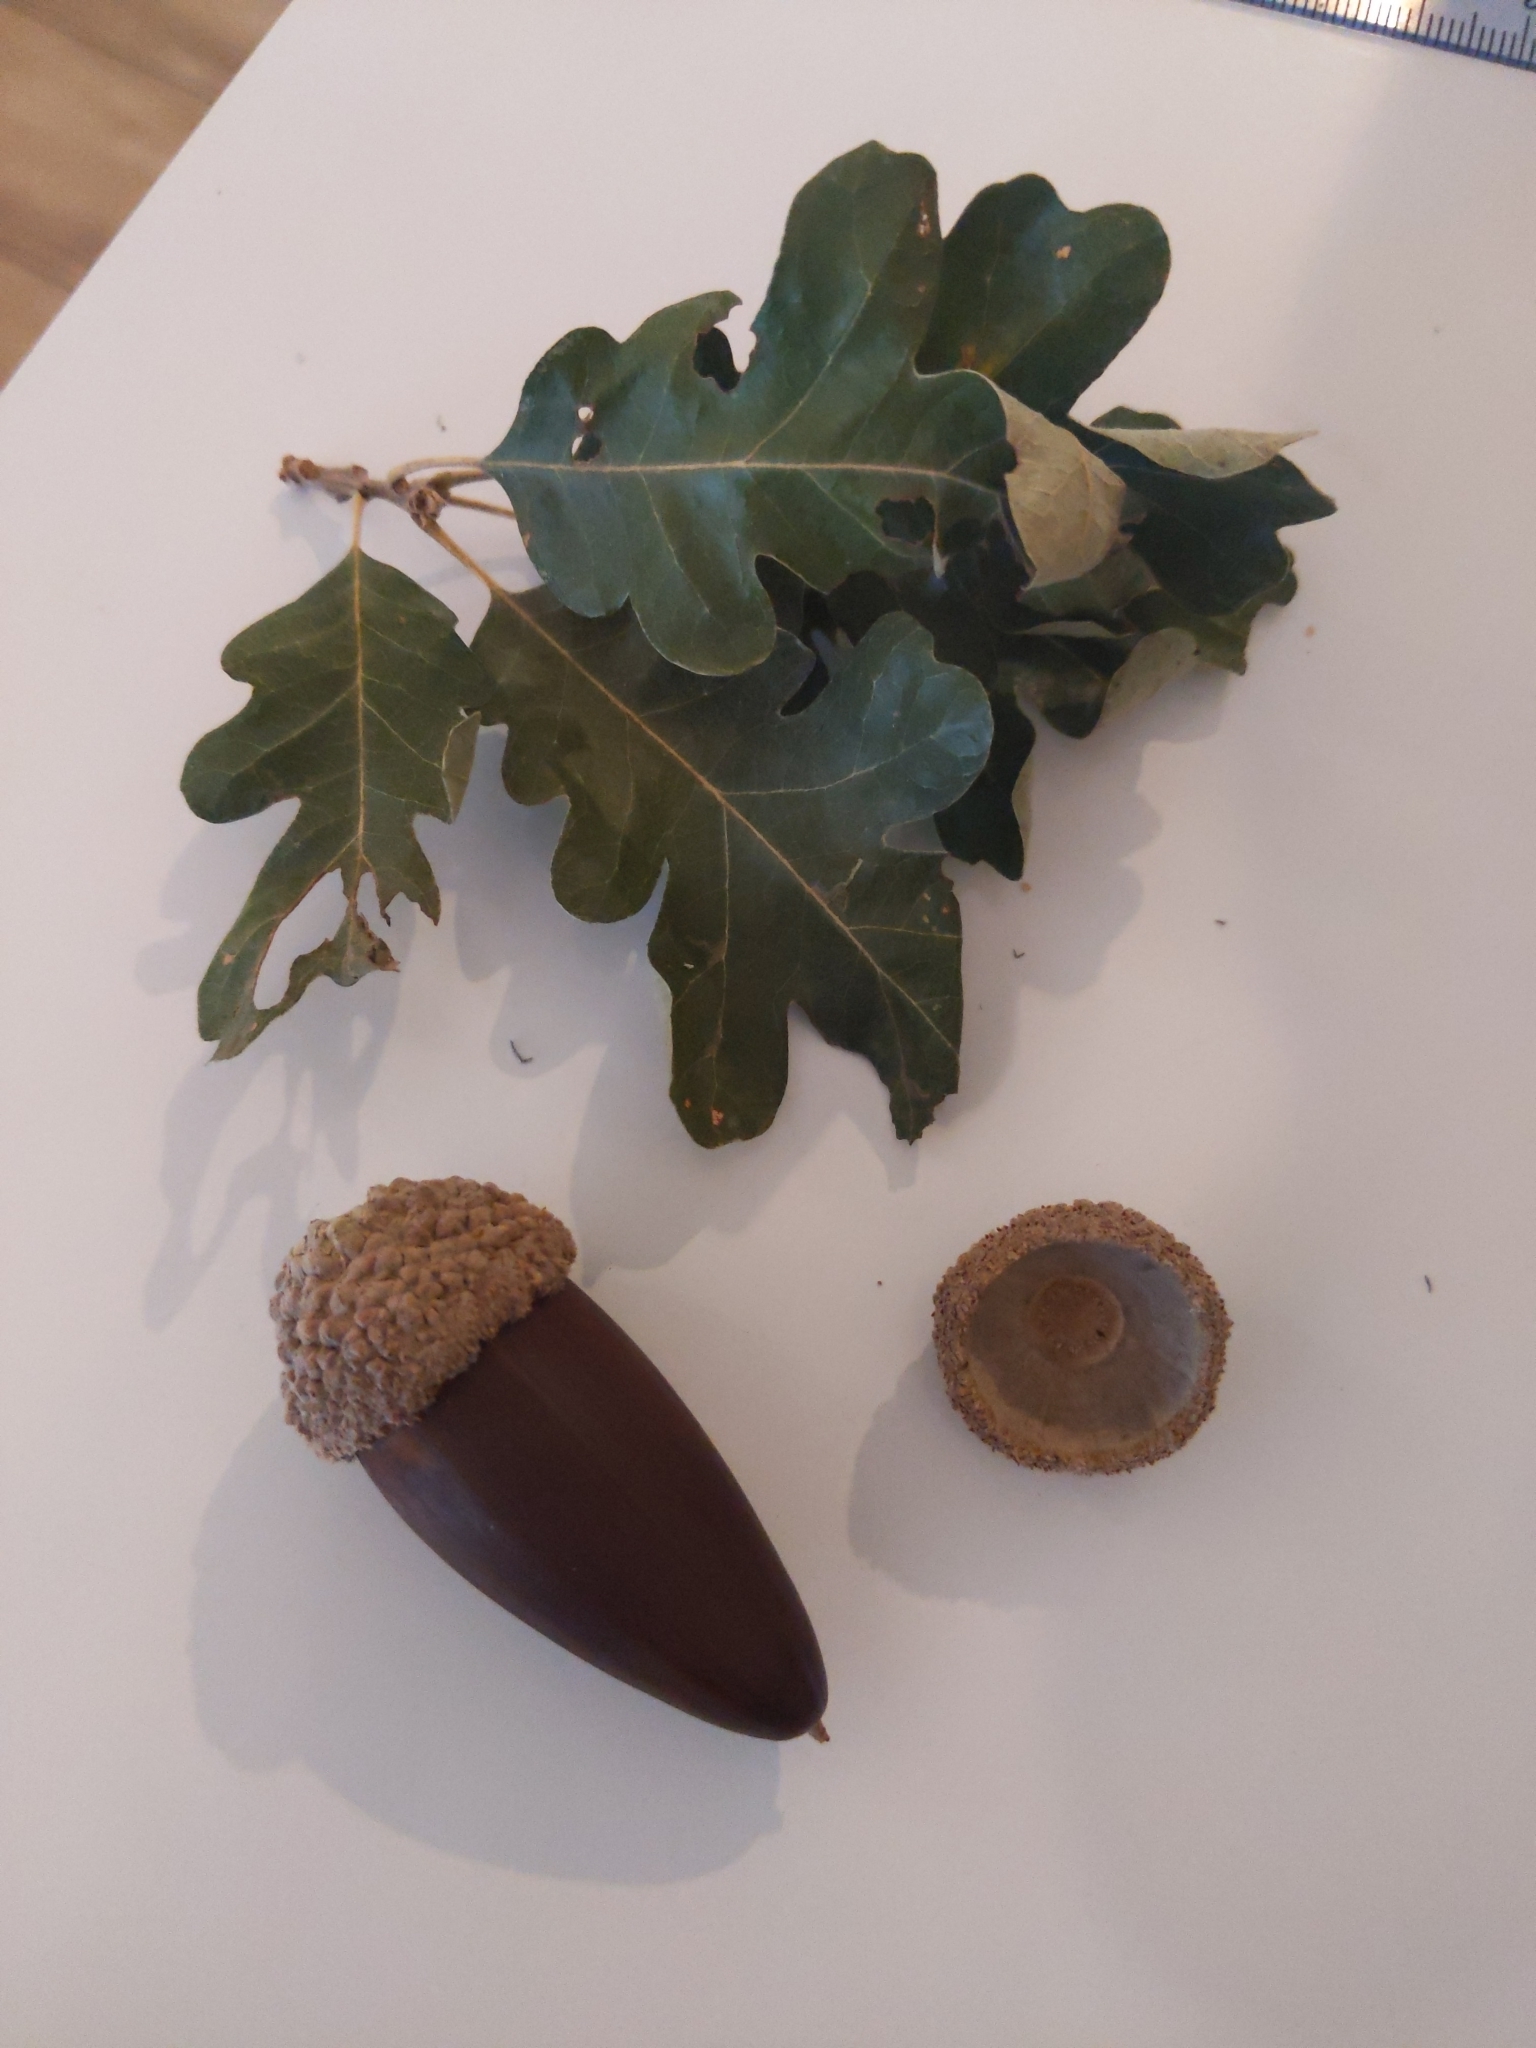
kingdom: Plantae
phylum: Tracheophyta
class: Magnoliopsida
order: Fagales
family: Fagaceae
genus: Quercus
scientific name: Quercus lobata
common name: Valley oak
